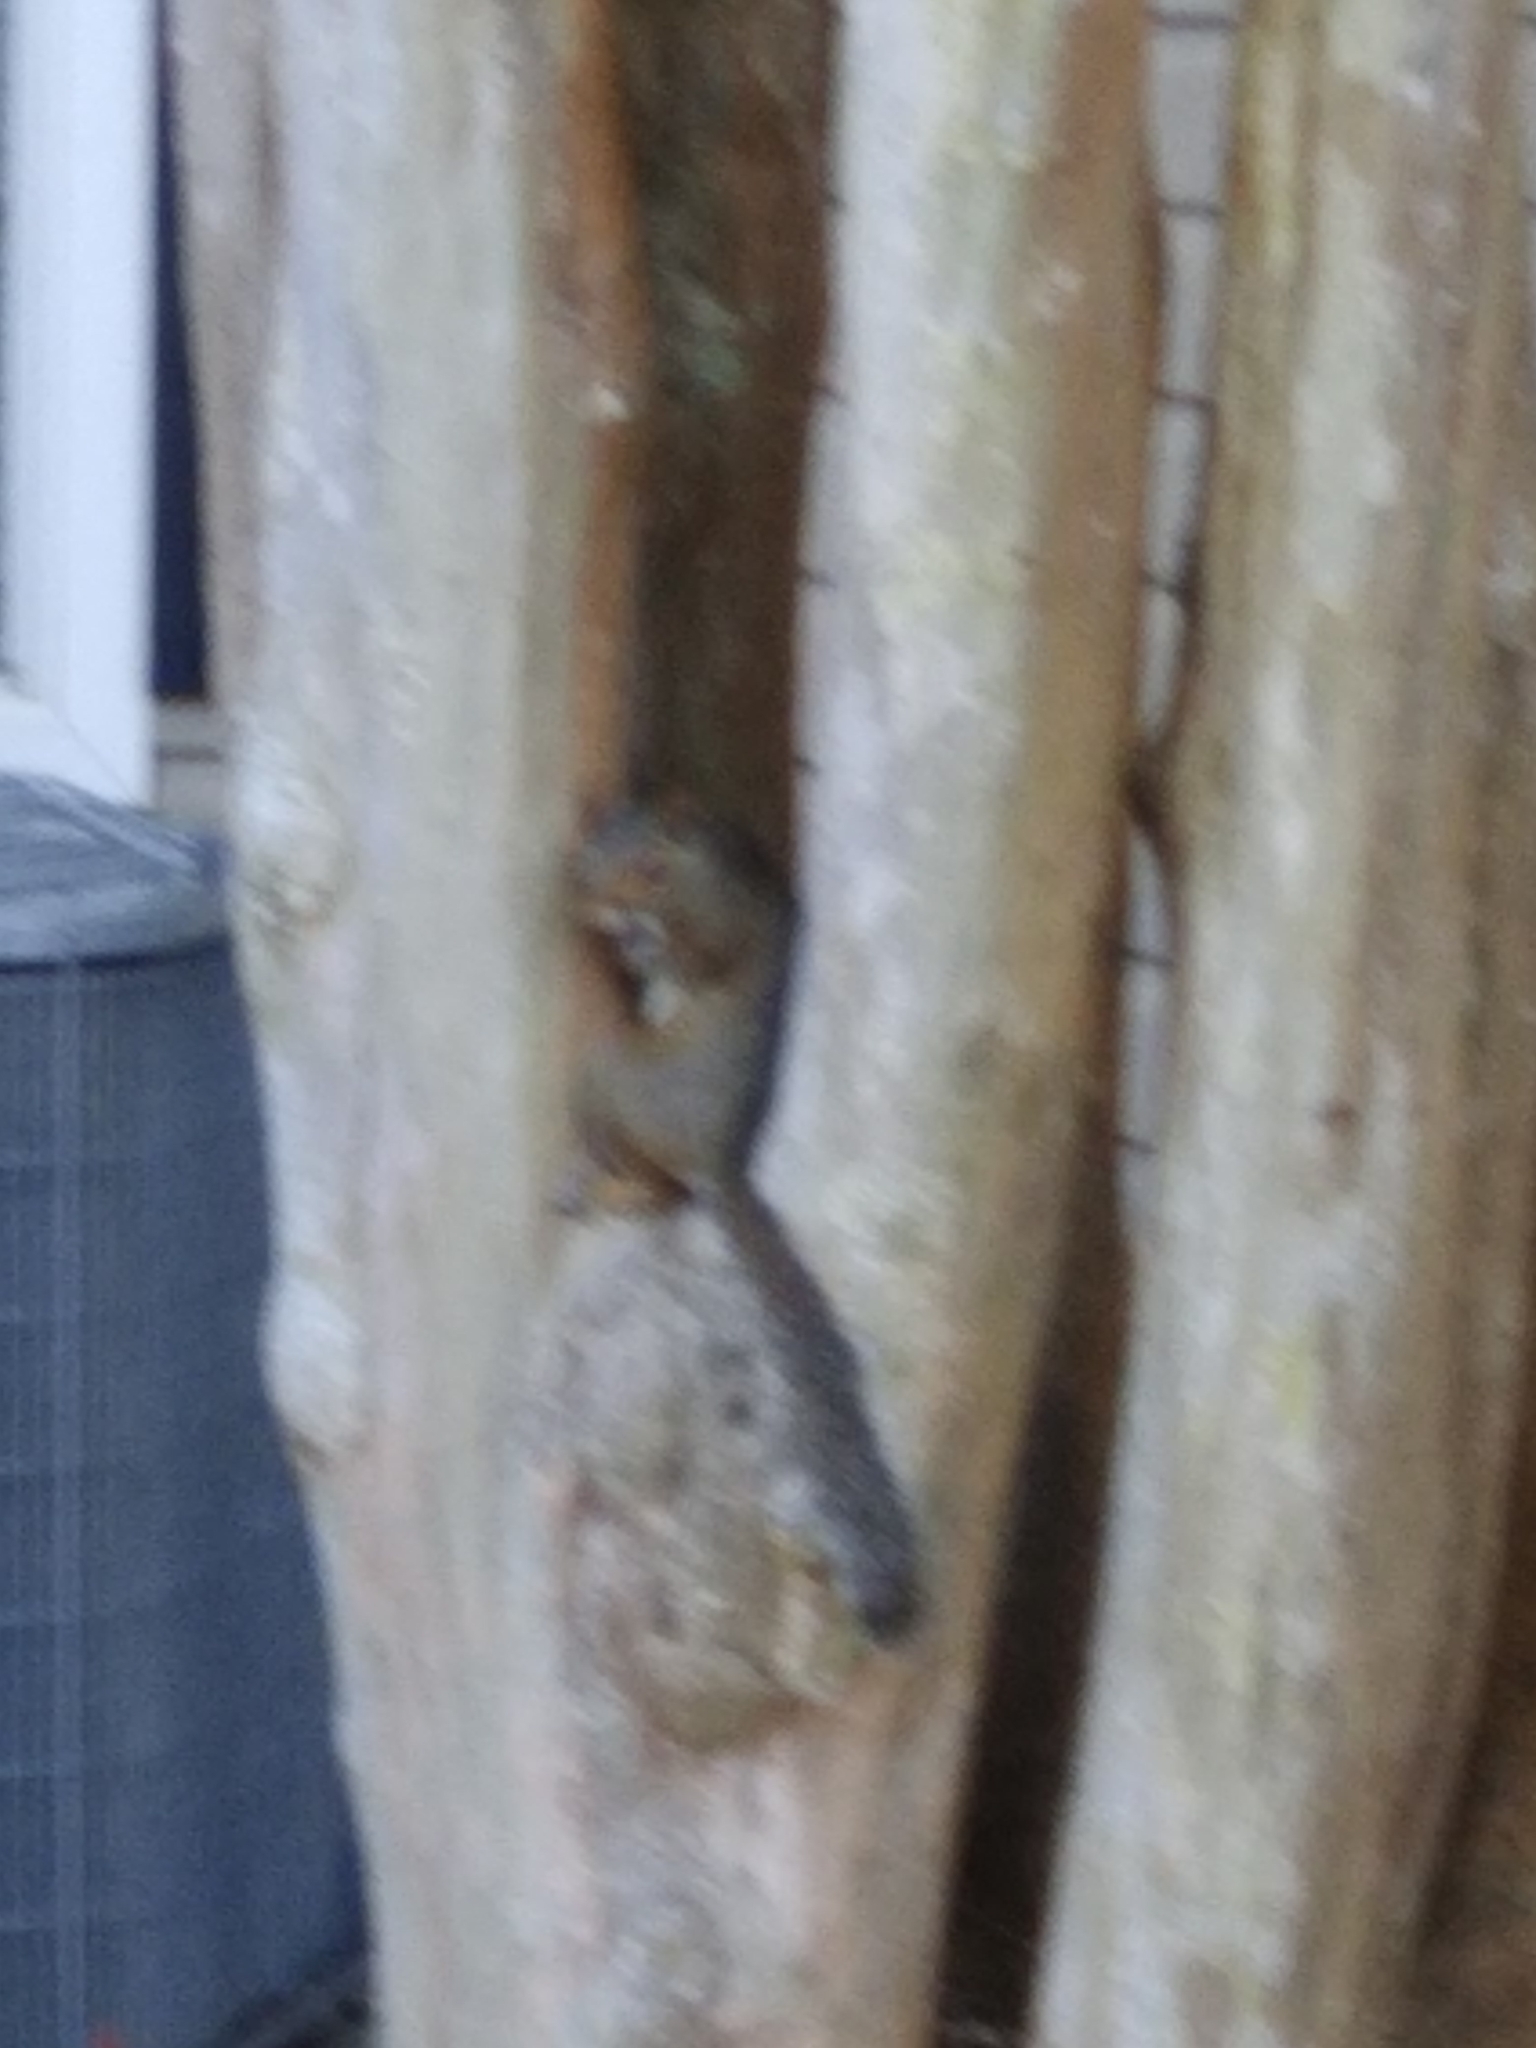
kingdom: Animalia
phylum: Chordata
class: Mammalia
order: Rodentia
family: Sciuridae
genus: Sciurus
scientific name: Sciurus carolinensis
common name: Eastern gray squirrel
